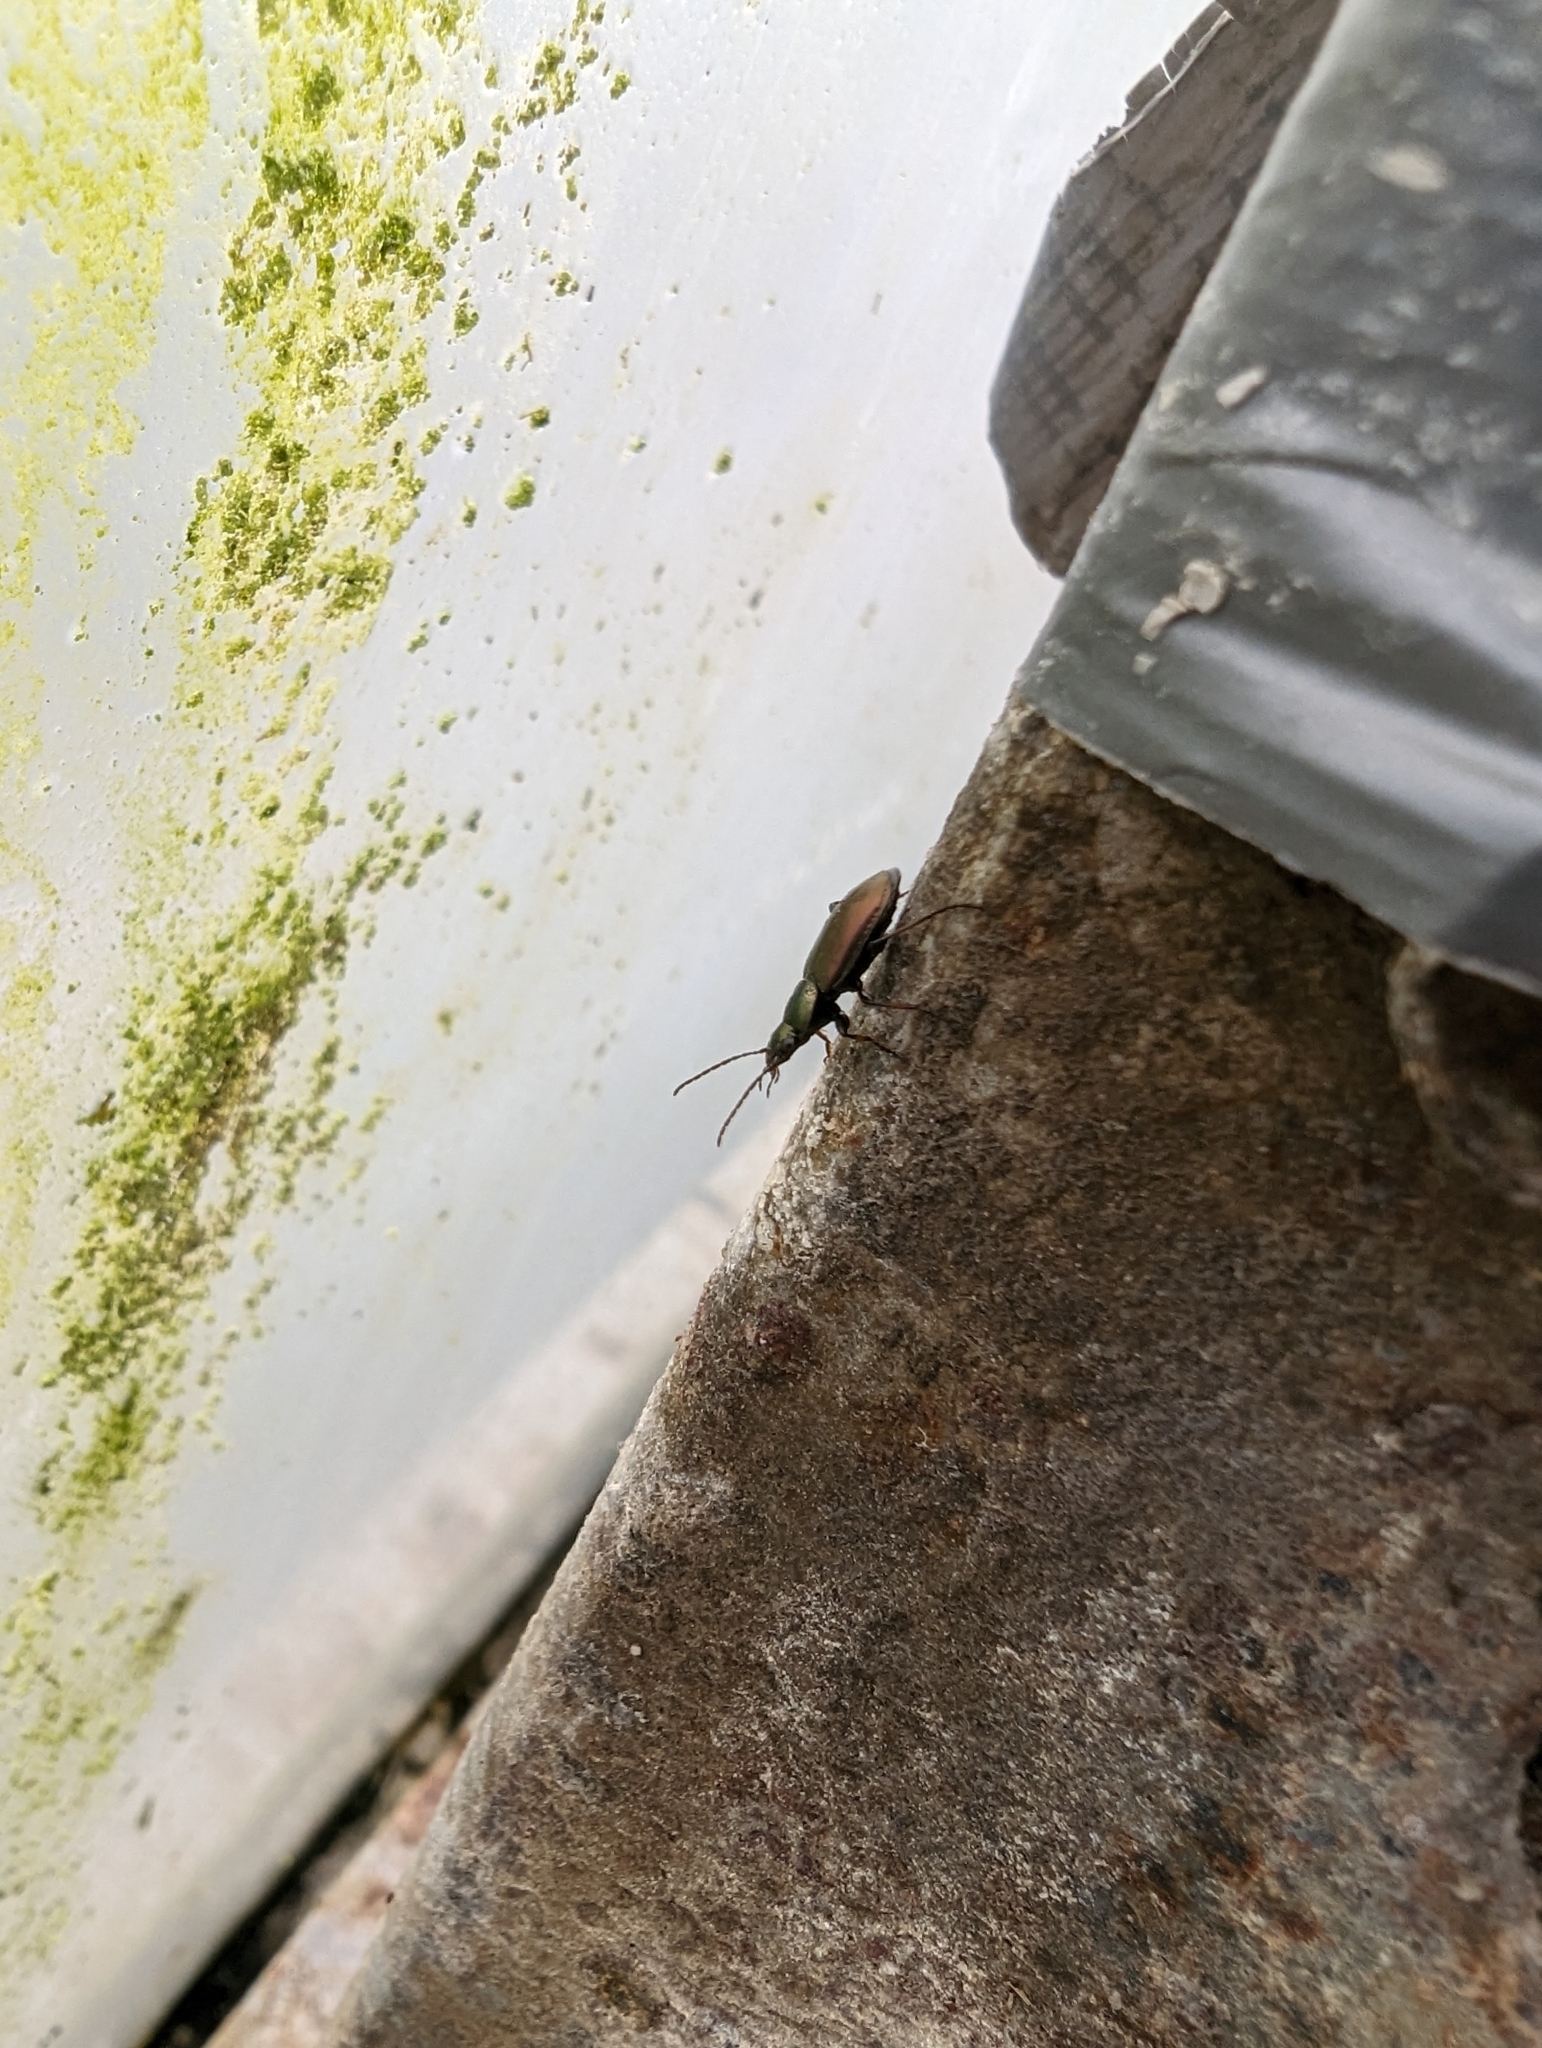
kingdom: Animalia
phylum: Arthropoda
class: Insecta
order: Coleoptera
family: Carabidae
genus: Agonum
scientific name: Agonum muelleri
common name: Müller's harp ground beetle
